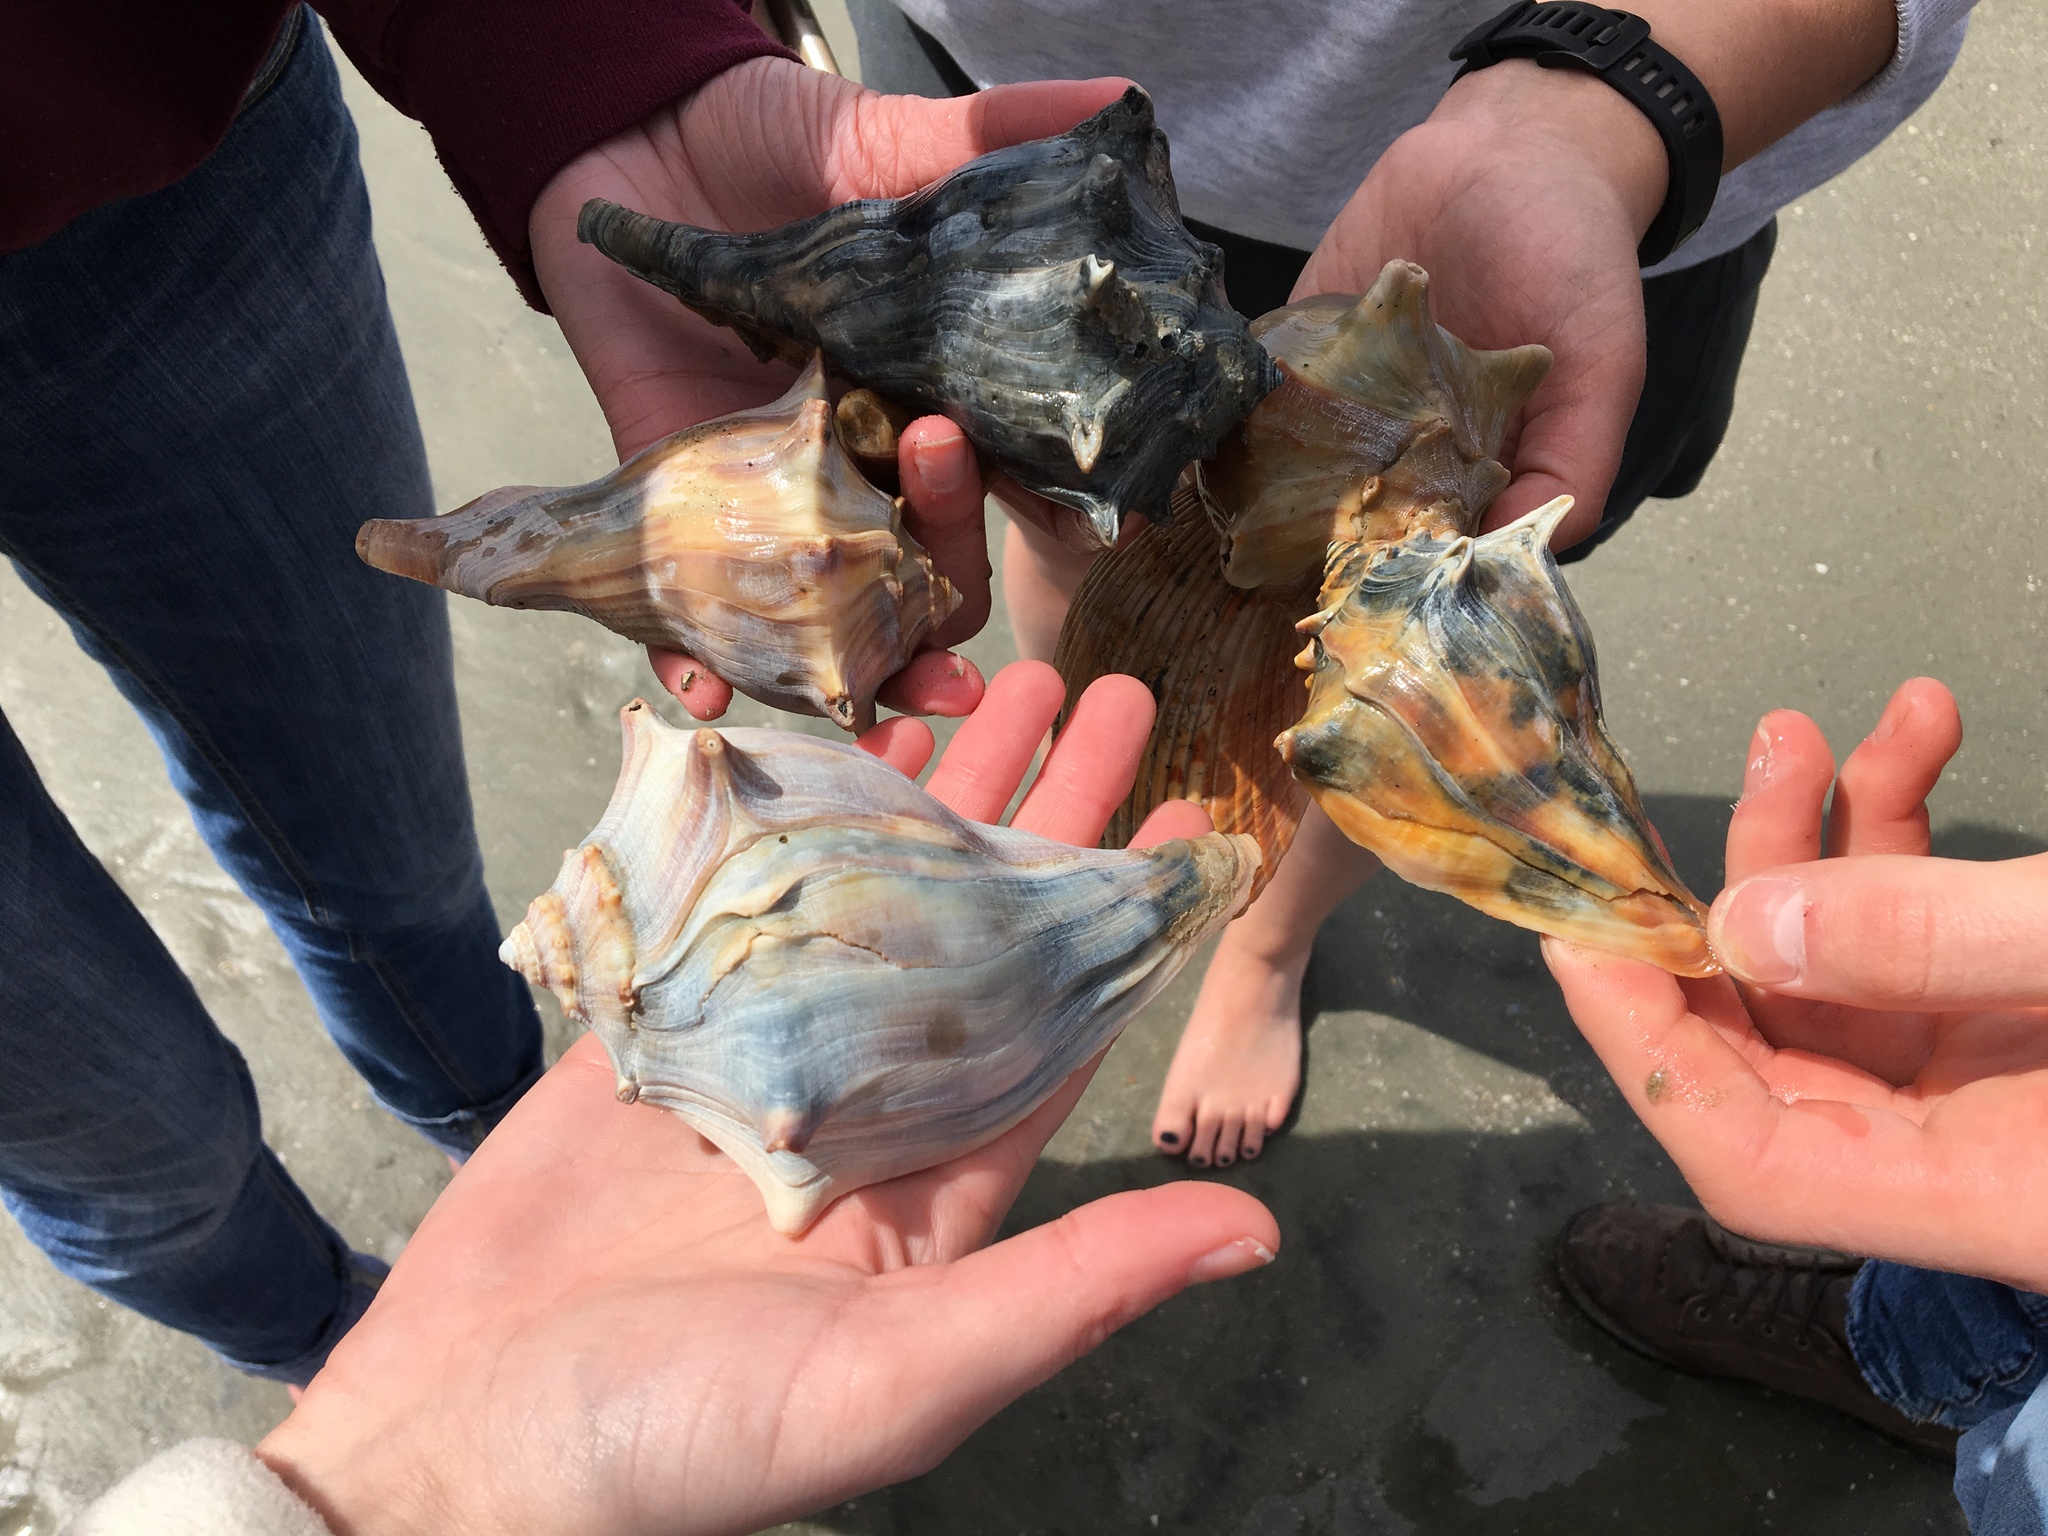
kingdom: Animalia
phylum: Mollusca
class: Gastropoda
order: Neogastropoda
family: Busyconidae
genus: Busycon
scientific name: Busycon carica
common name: Knobbed whelk
